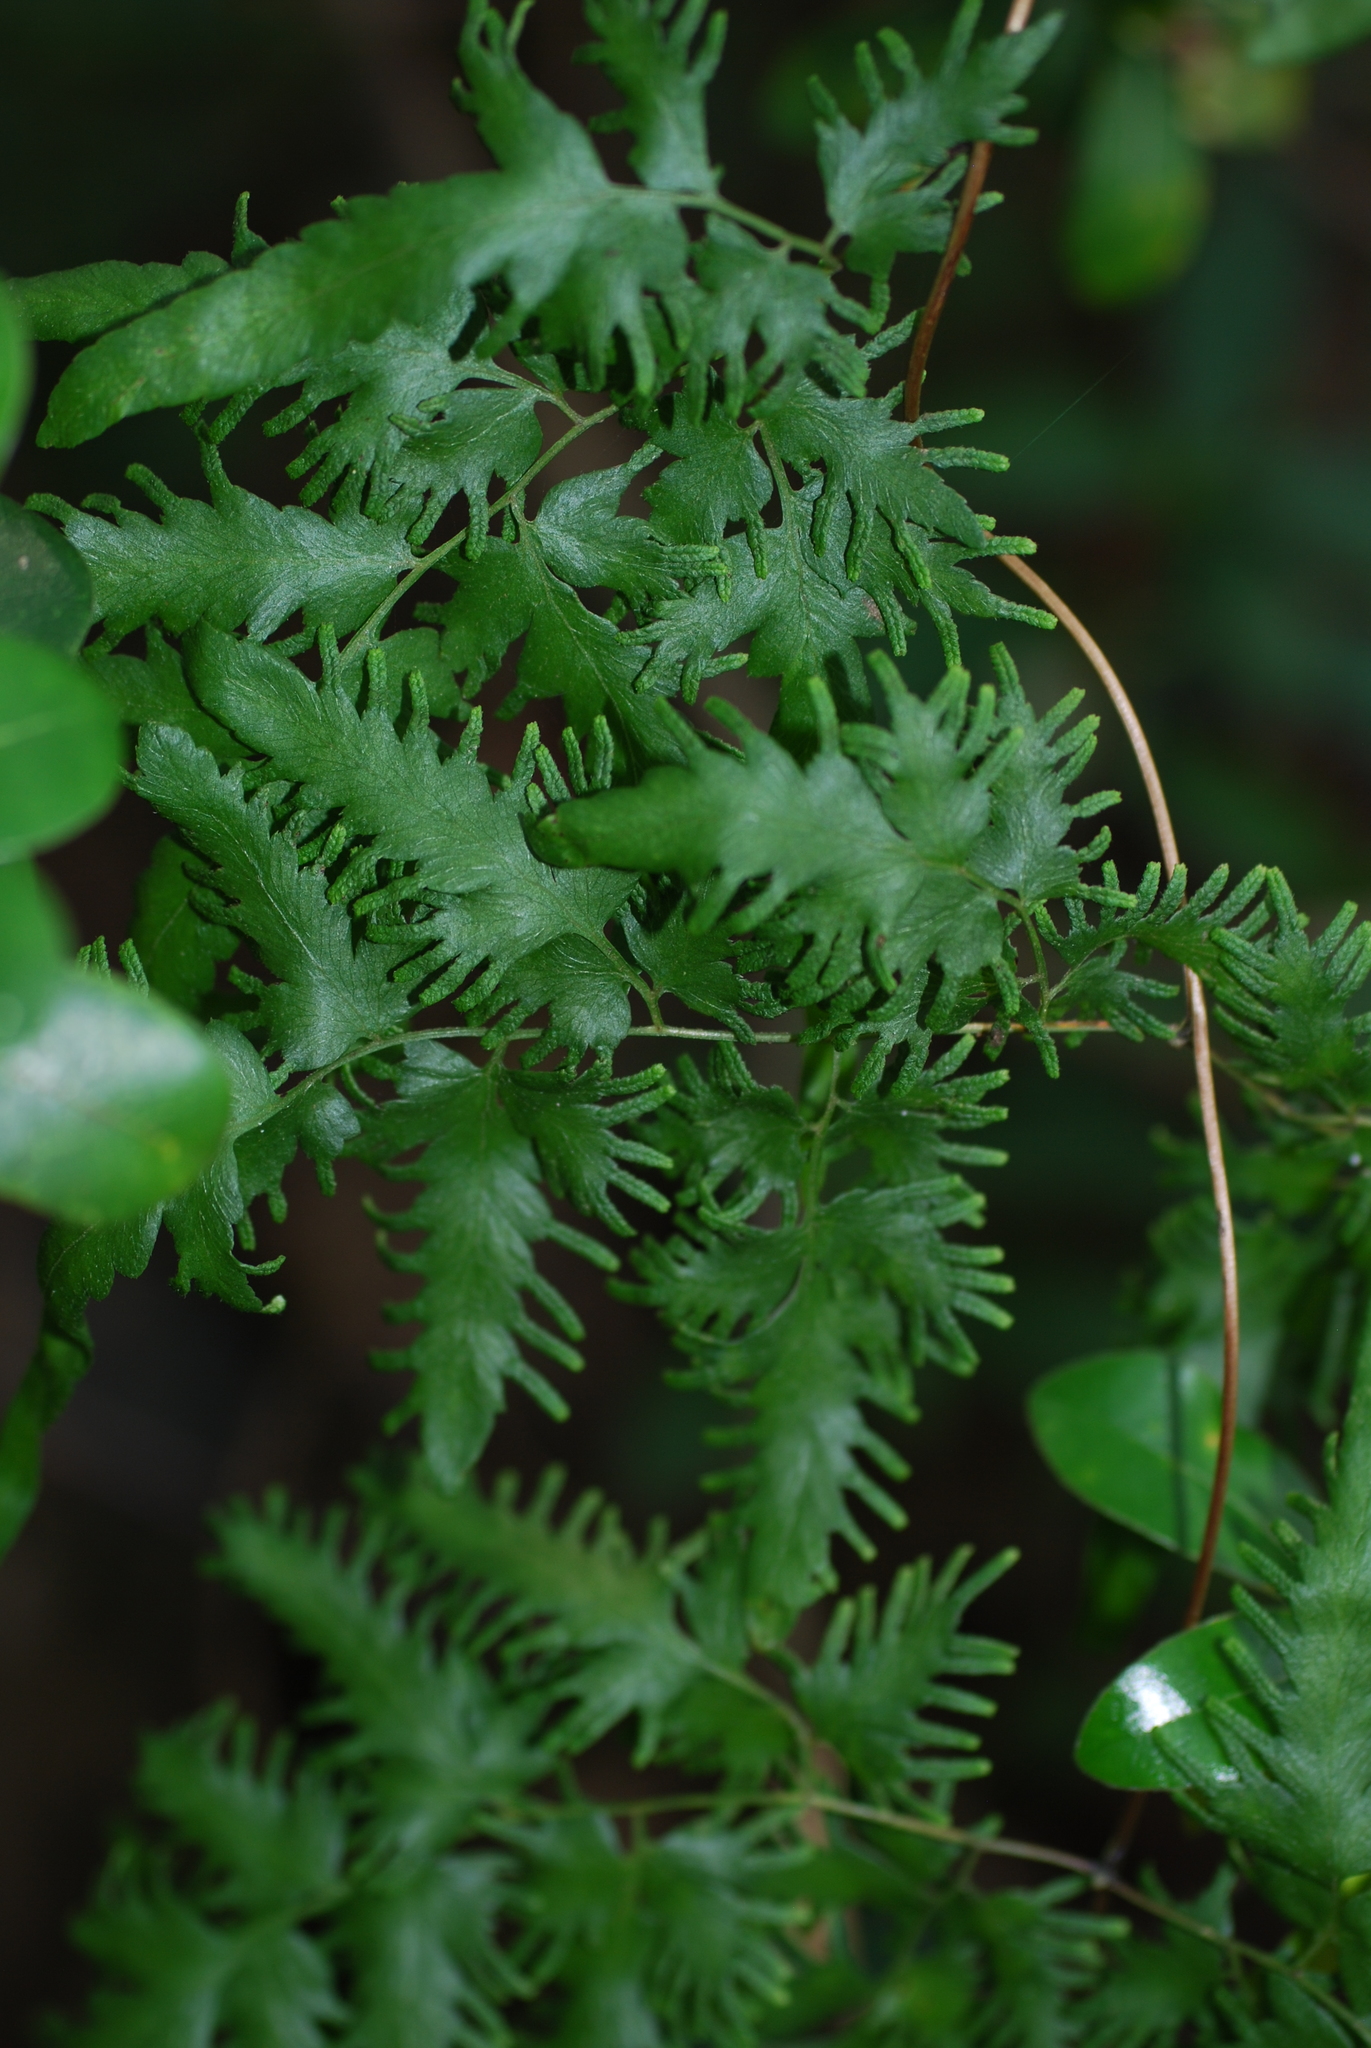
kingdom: Plantae
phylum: Tracheophyta
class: Polypodiopsida
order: Schizaeales
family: Lygodiaceae
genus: Lygodium
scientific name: Lygodium japonicum
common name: Japanese climbing fern
